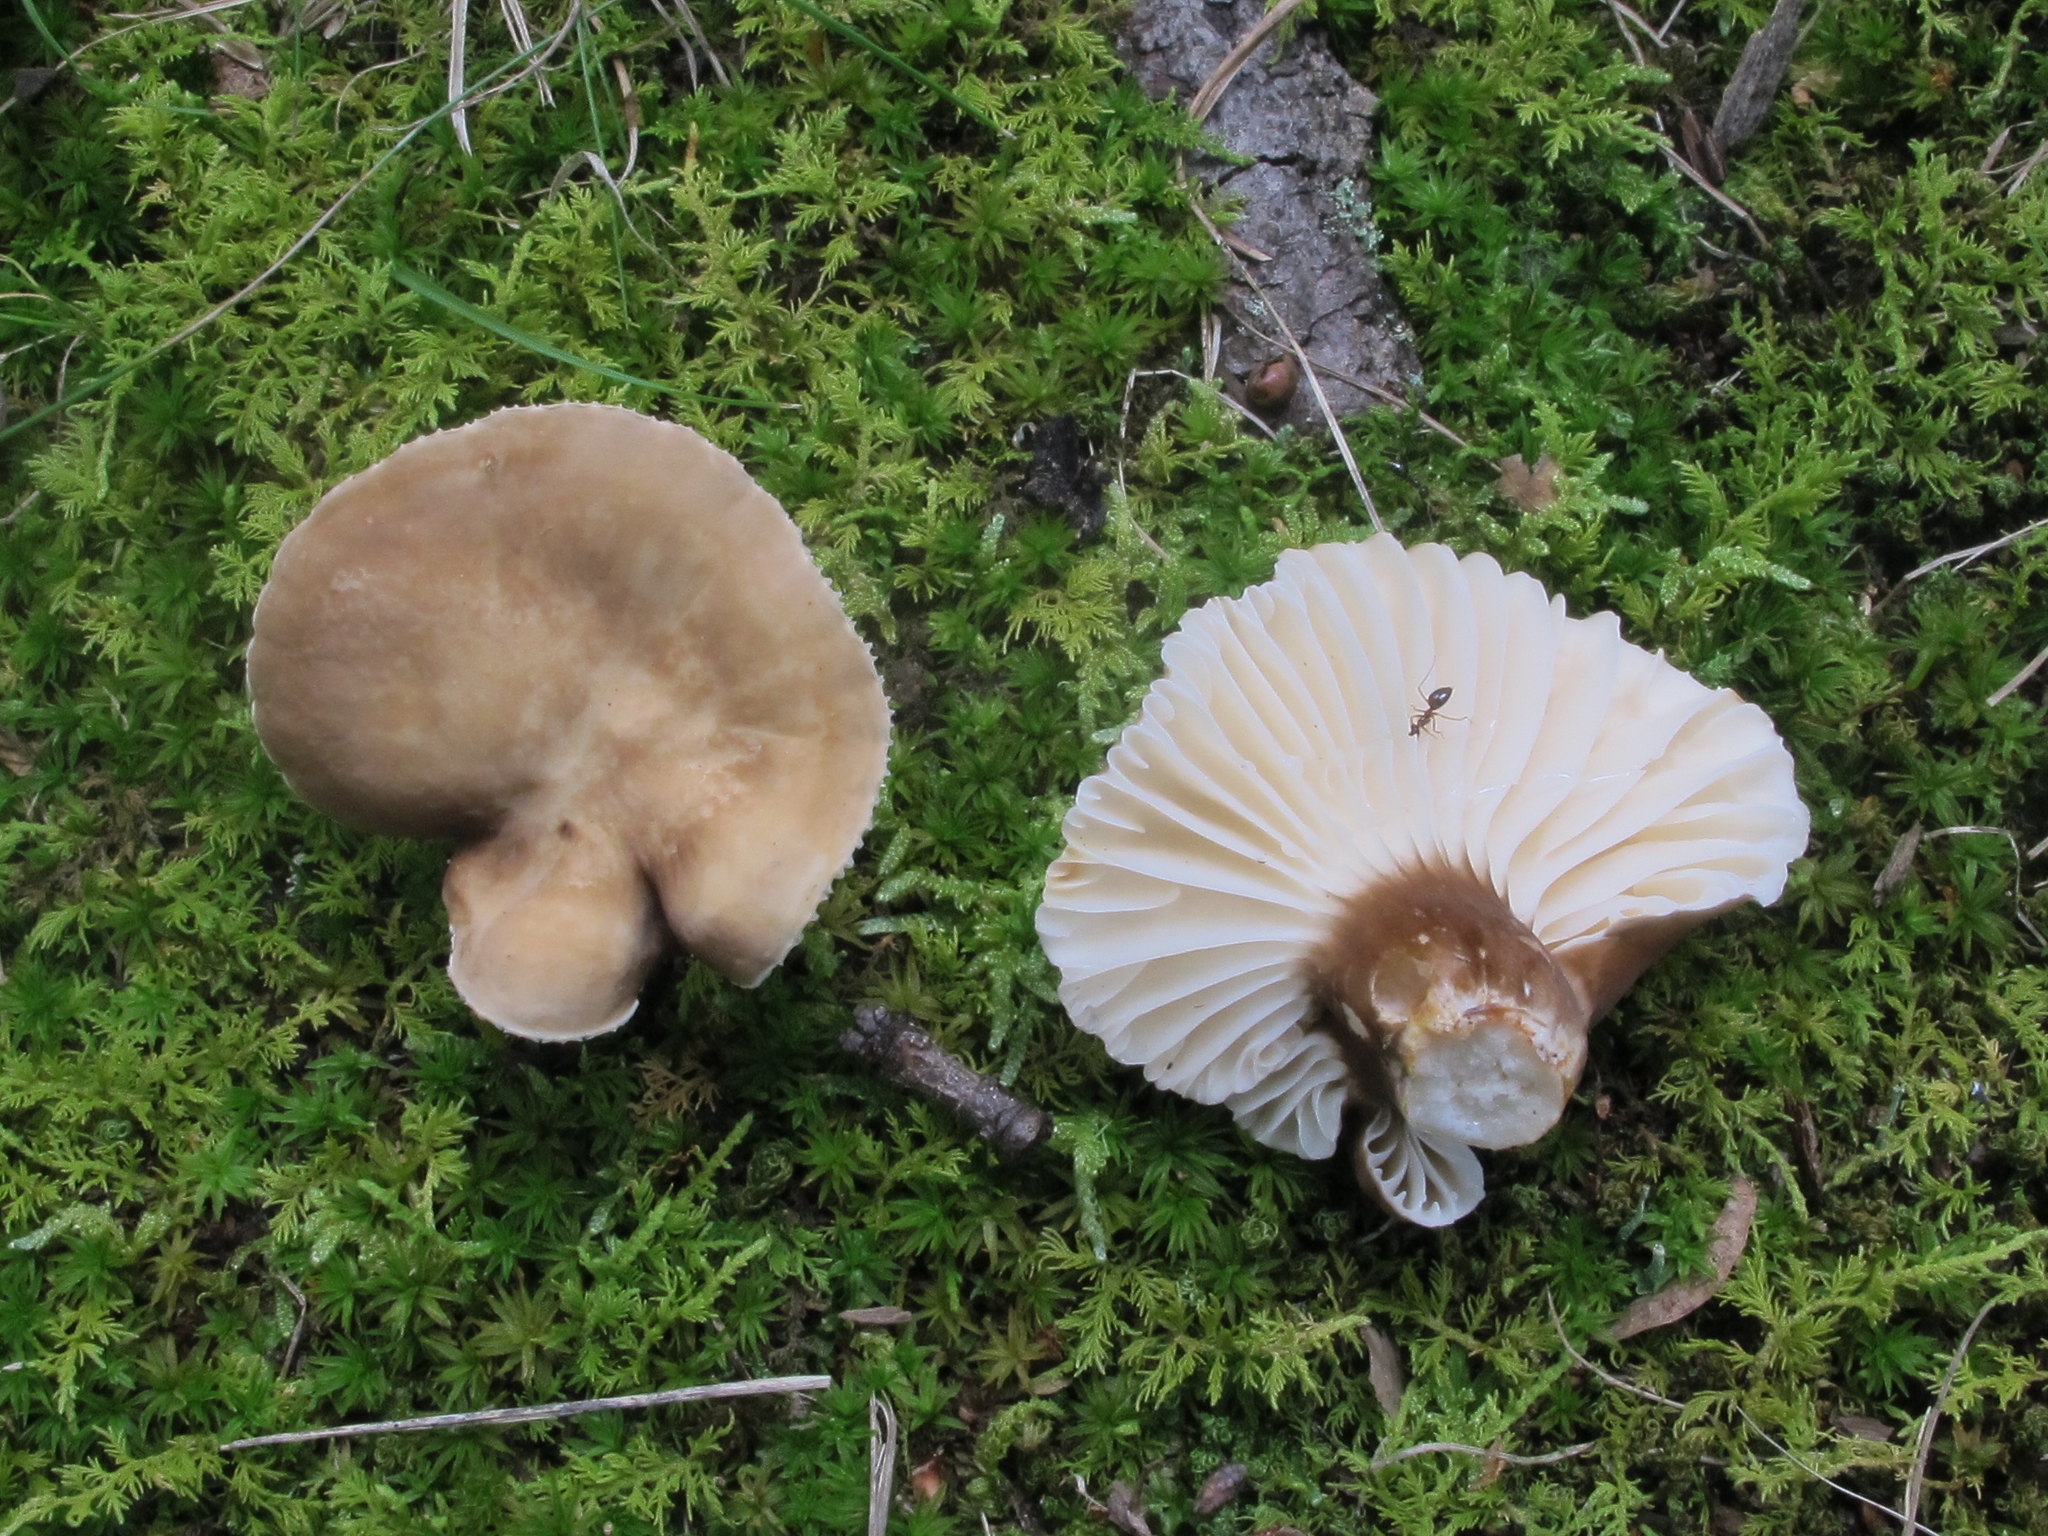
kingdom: Fungi
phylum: Basidiomycota
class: Agaricomycetes
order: Russulales
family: Russulaceae
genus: Lactarius
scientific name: Lactarius gerardii
